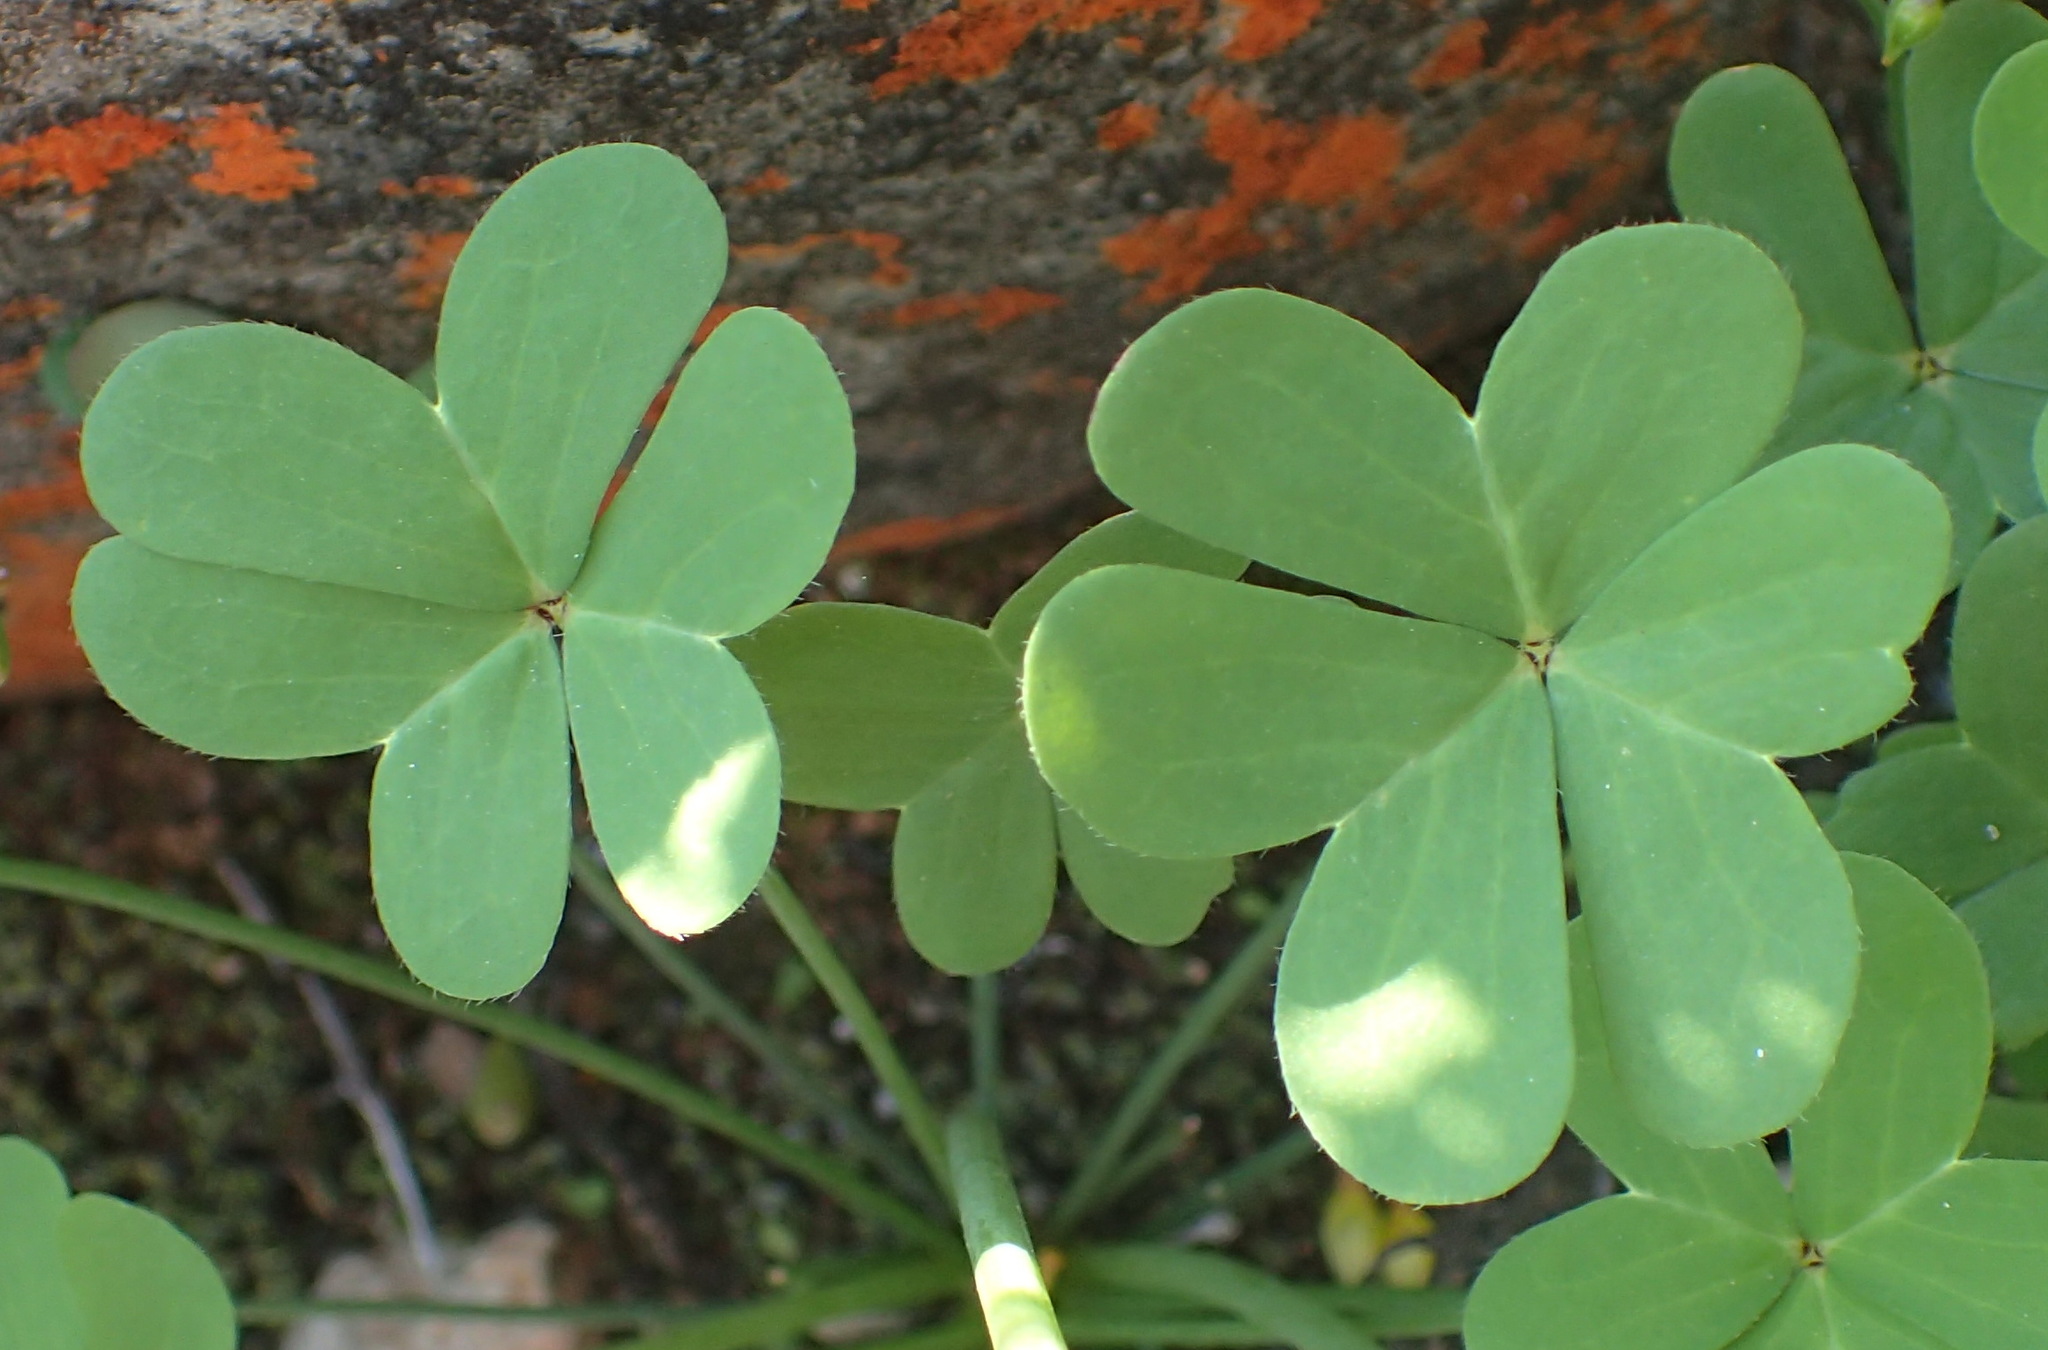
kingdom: Plantae
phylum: Tracheophyta
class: Magnoliopsida
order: Oxalidales
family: Oxalidaceae
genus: Oxalis
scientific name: Oxalis pes-caprae
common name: Bermuda-buttercup
